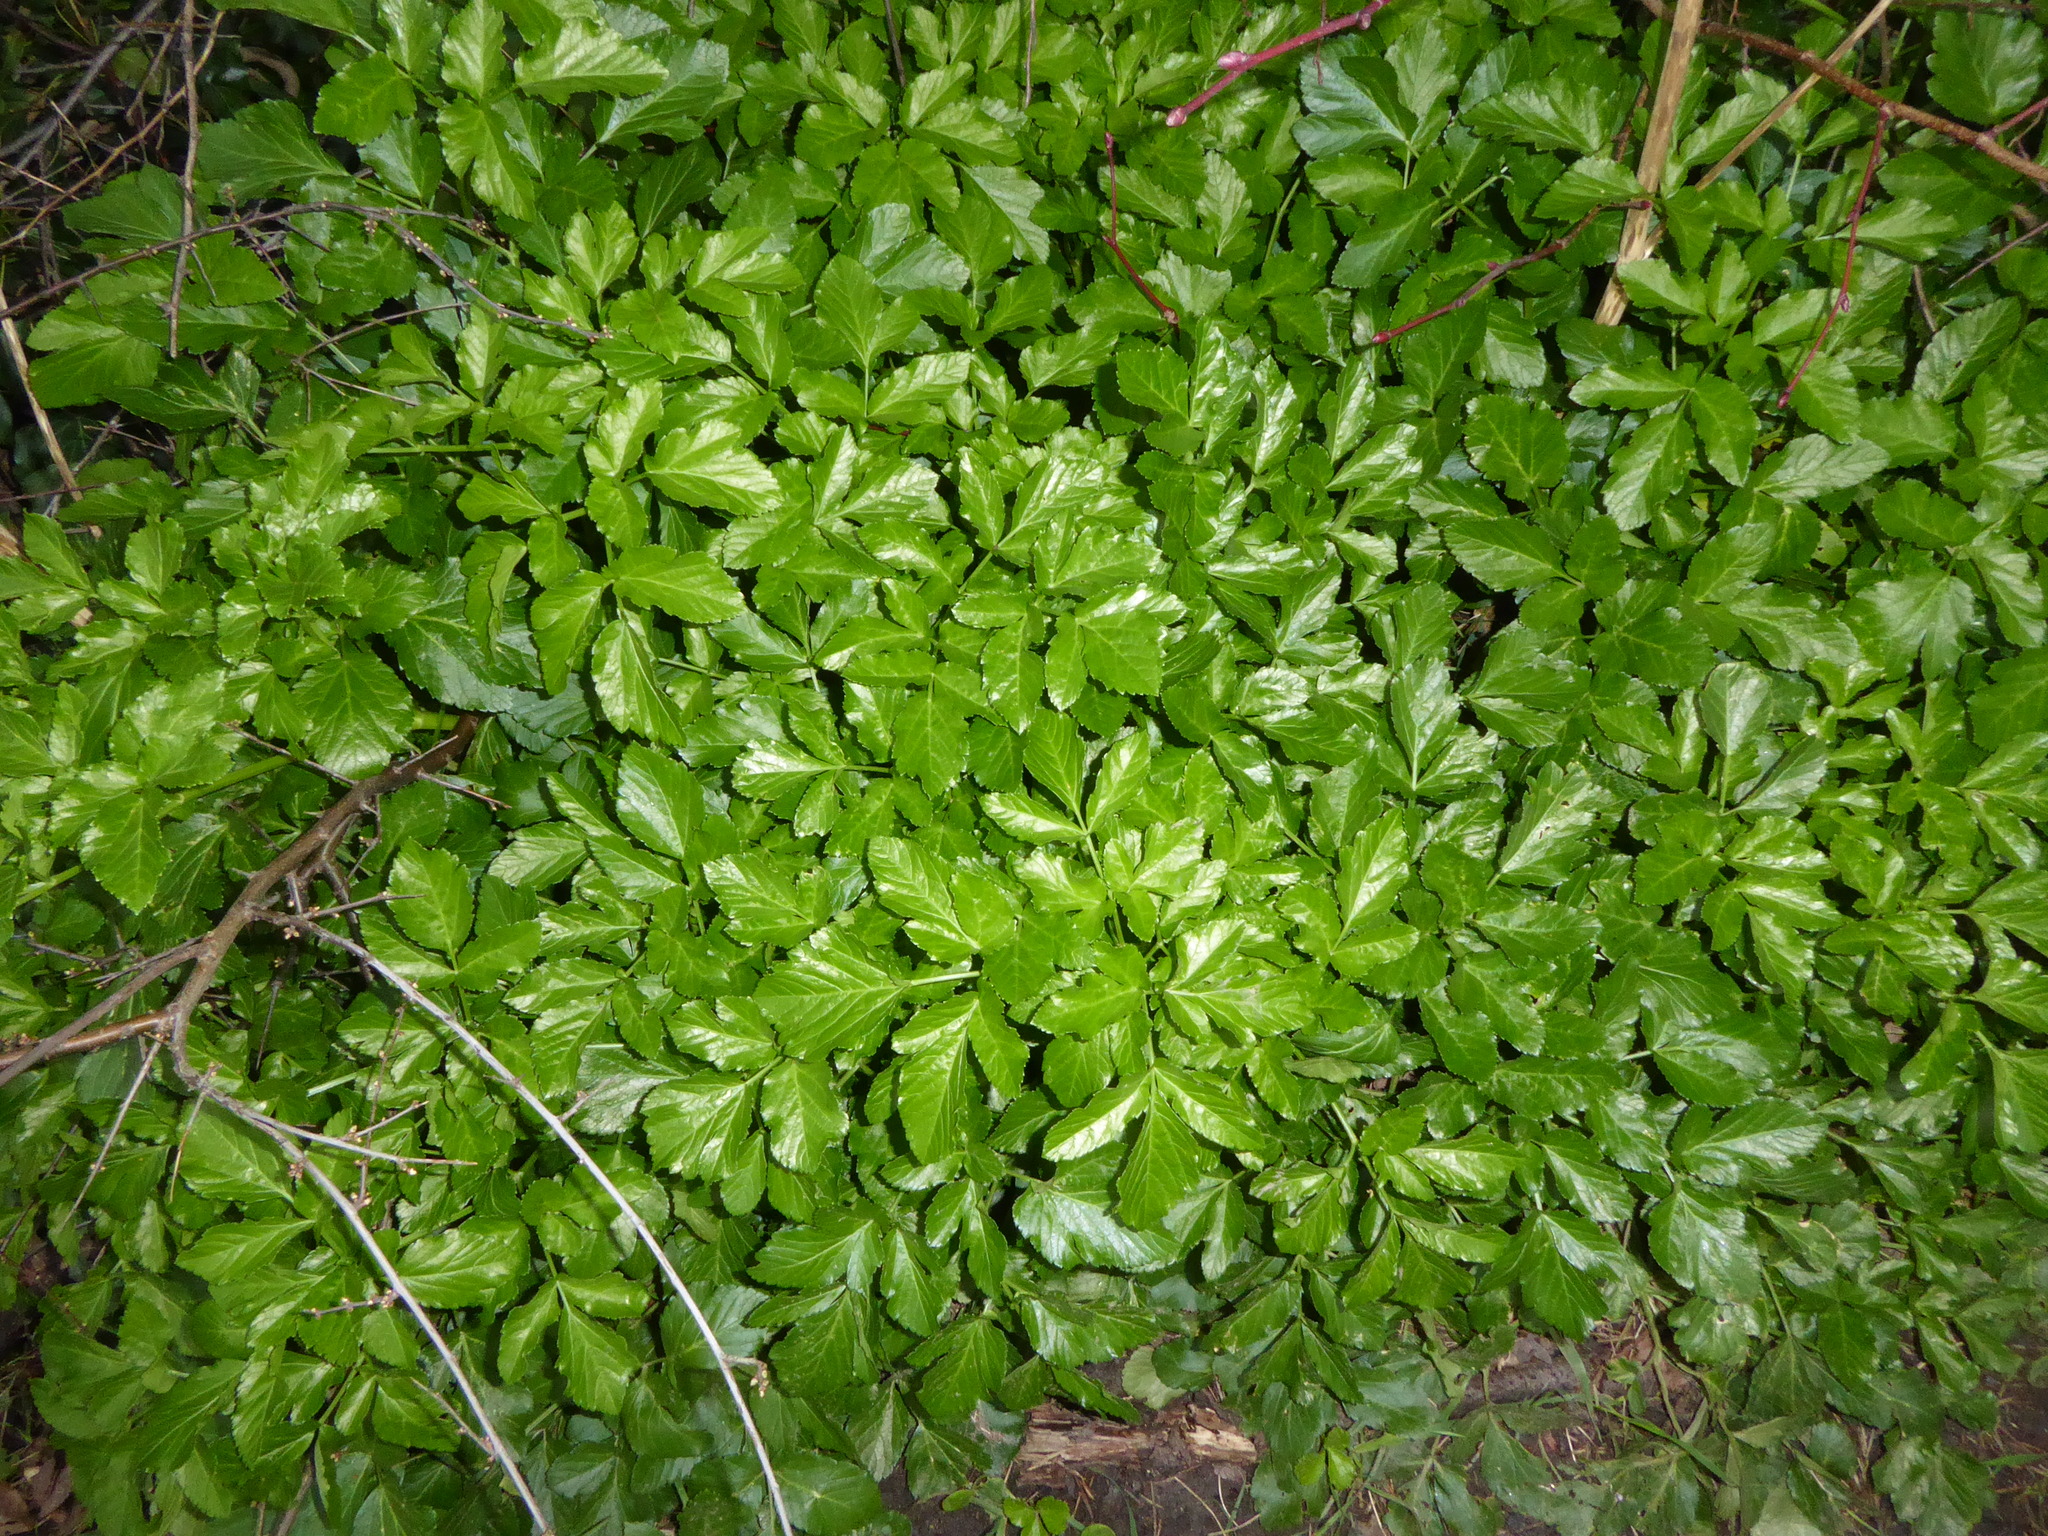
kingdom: Plantae
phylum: Tracheophyta
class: Magnoliopsida
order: Apiales
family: Apiaceae
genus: Smyrnium
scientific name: Smyrnium olusatrum
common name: Alexanders
